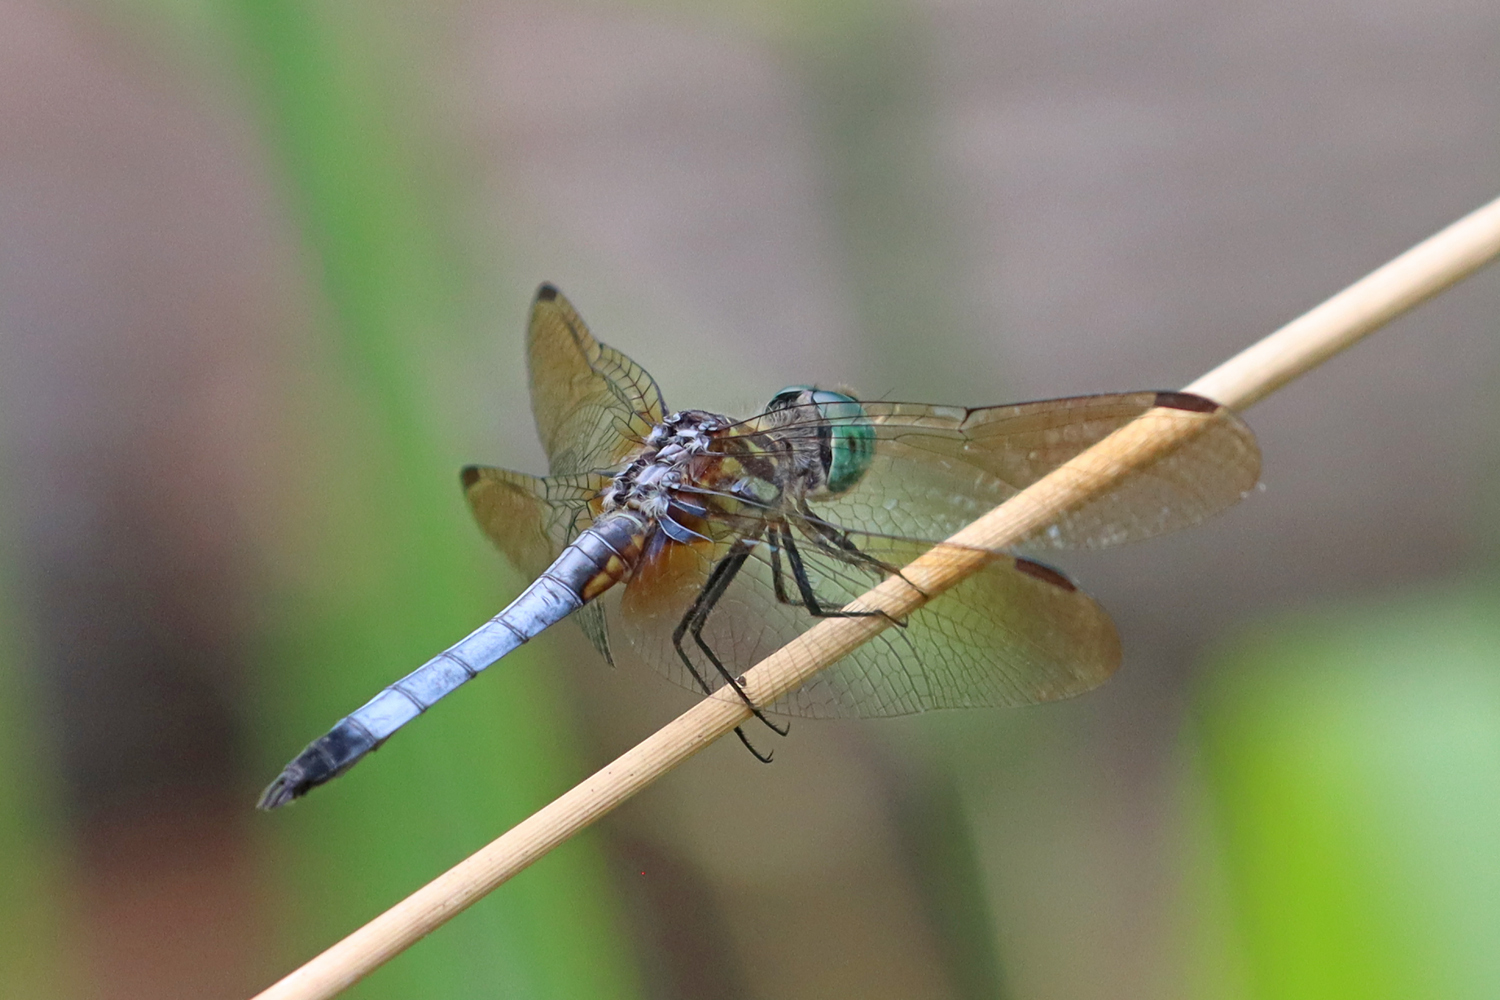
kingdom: Animalia
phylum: Arthropoda
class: Insecta
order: Odonata
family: Libellulidae
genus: Pachydiplax
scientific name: Pachydiplax longipennis
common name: Blue dasher
